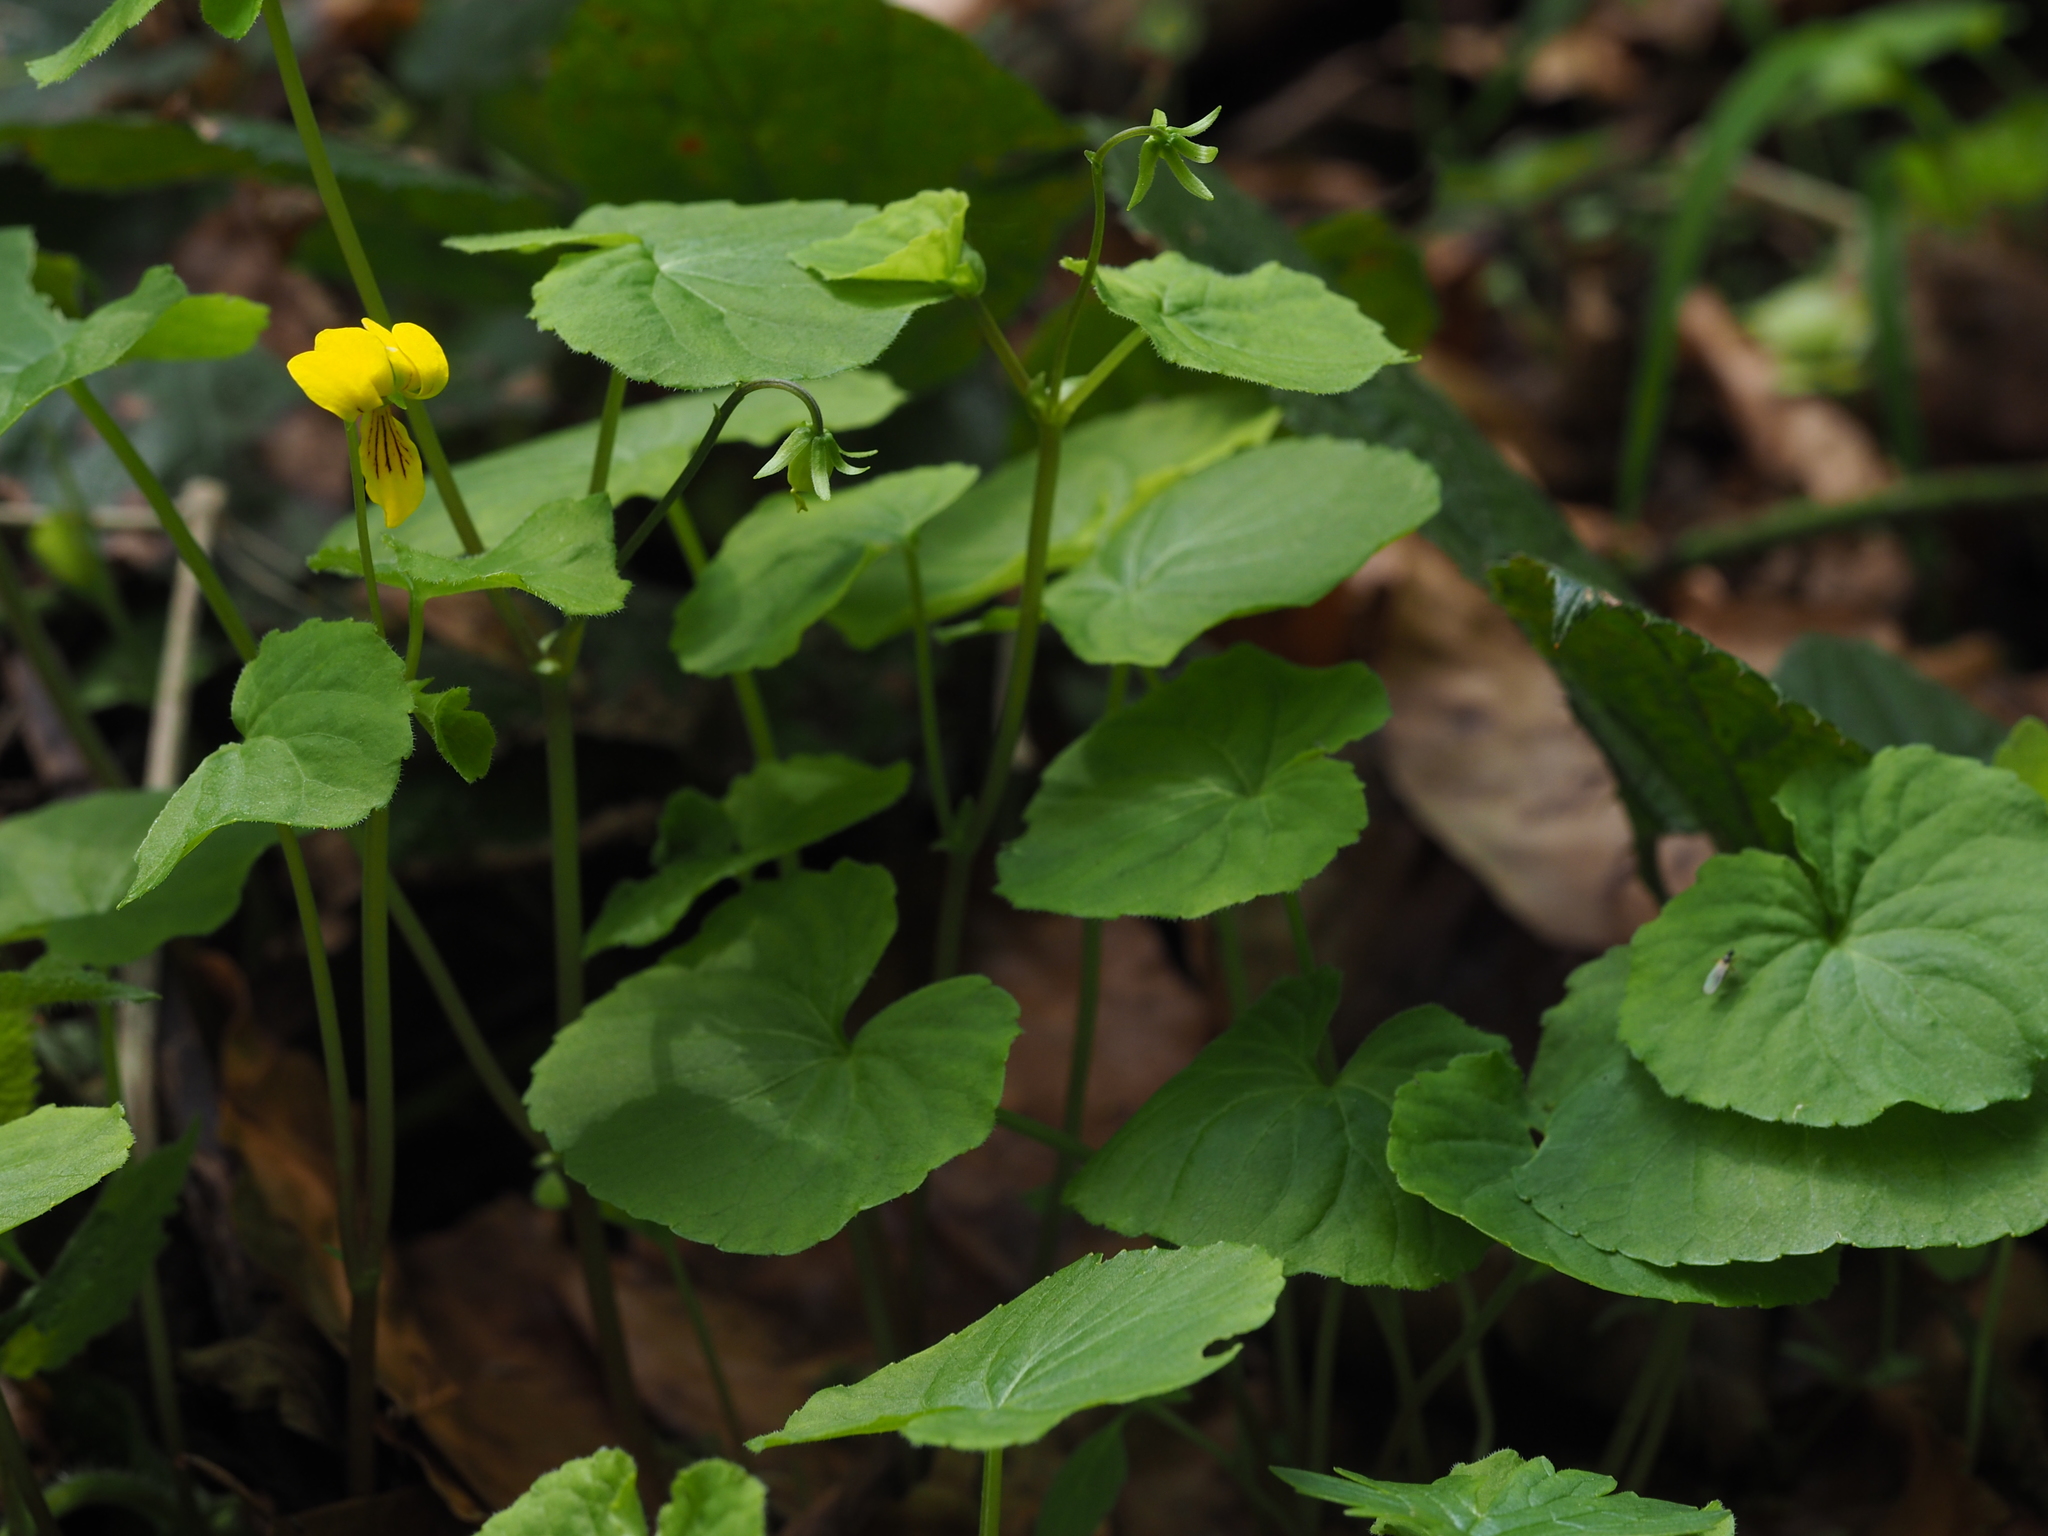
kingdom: Plantae
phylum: Tracheophyta
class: Magnoliopsida
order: Malpighiales
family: Violaceae
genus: Viola
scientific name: Viola biflora
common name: Alpine yellow violet
